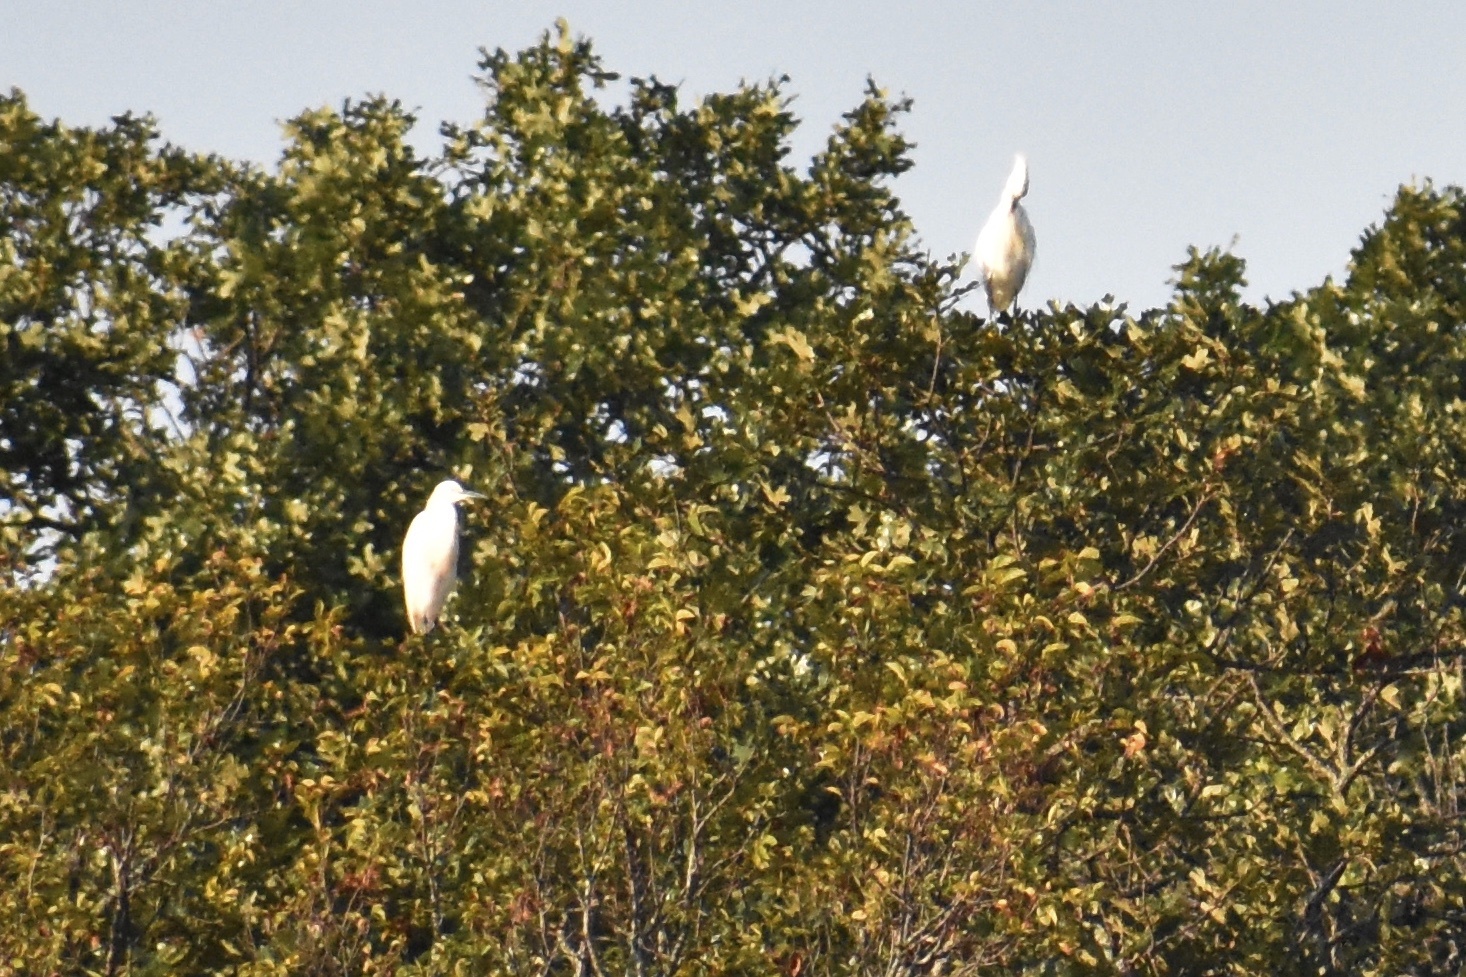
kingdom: Animalia
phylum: Chordata
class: Aves
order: Pelecaniformes
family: Ardeidae
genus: Bubulcus
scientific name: Bubulcus ibis
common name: Cattle egret
